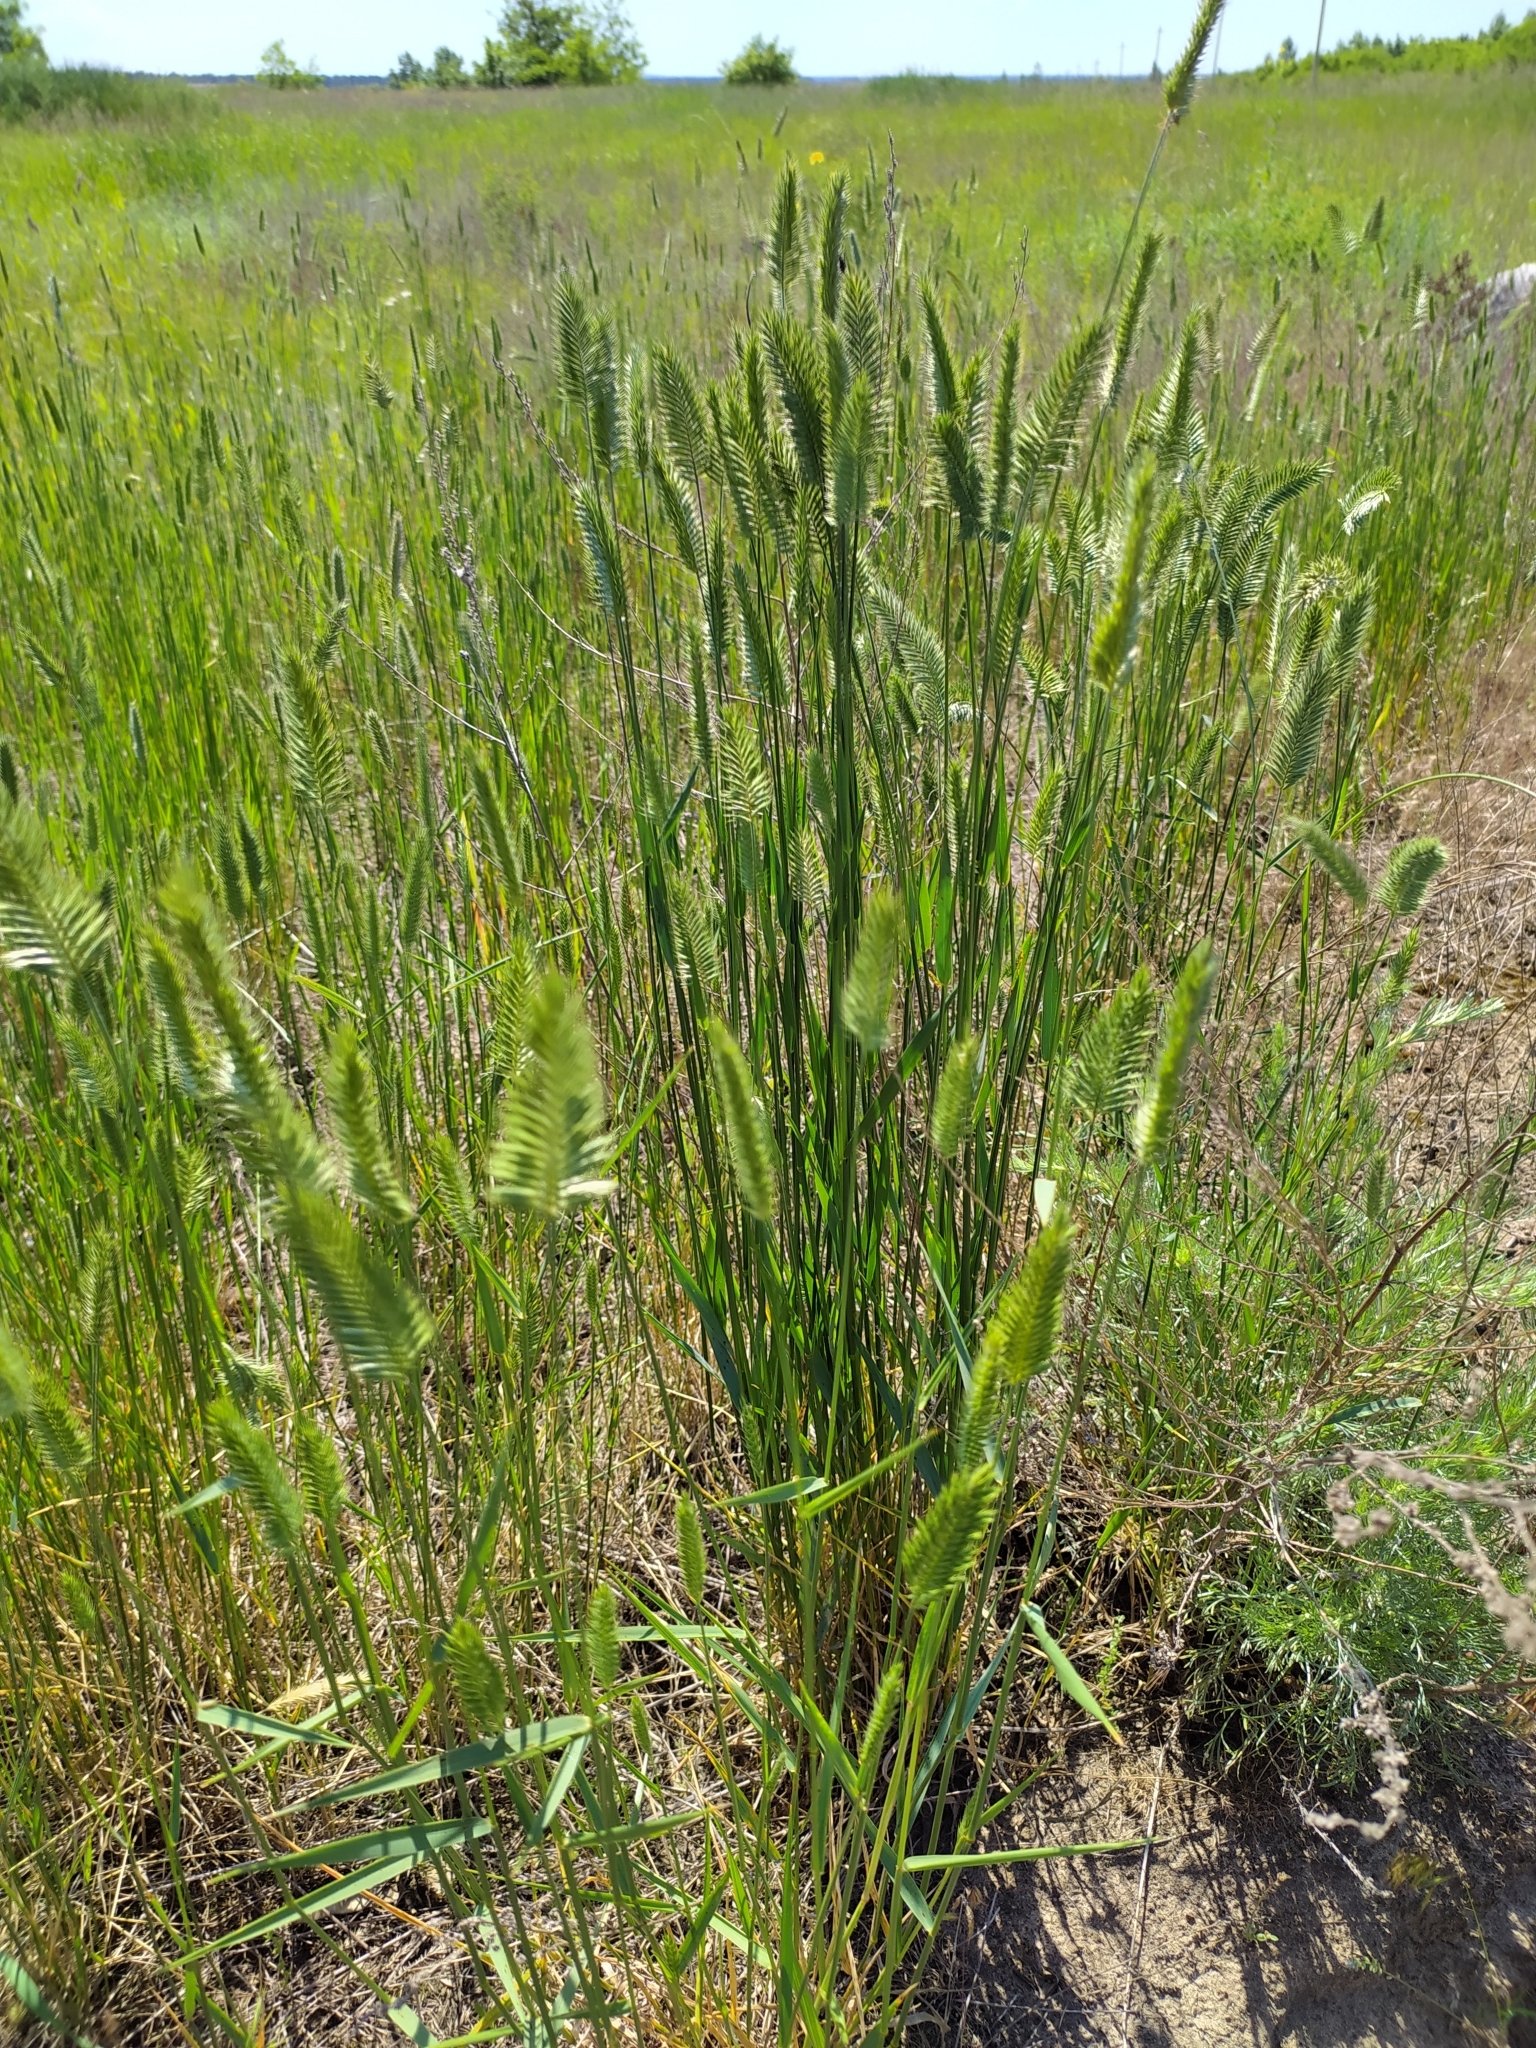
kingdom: Plantae
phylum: Tracheophyta
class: Liliopsida
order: Poales
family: Poaceae
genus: Agropyron
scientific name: Agropyron cristatum
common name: Crested wheatgrass
